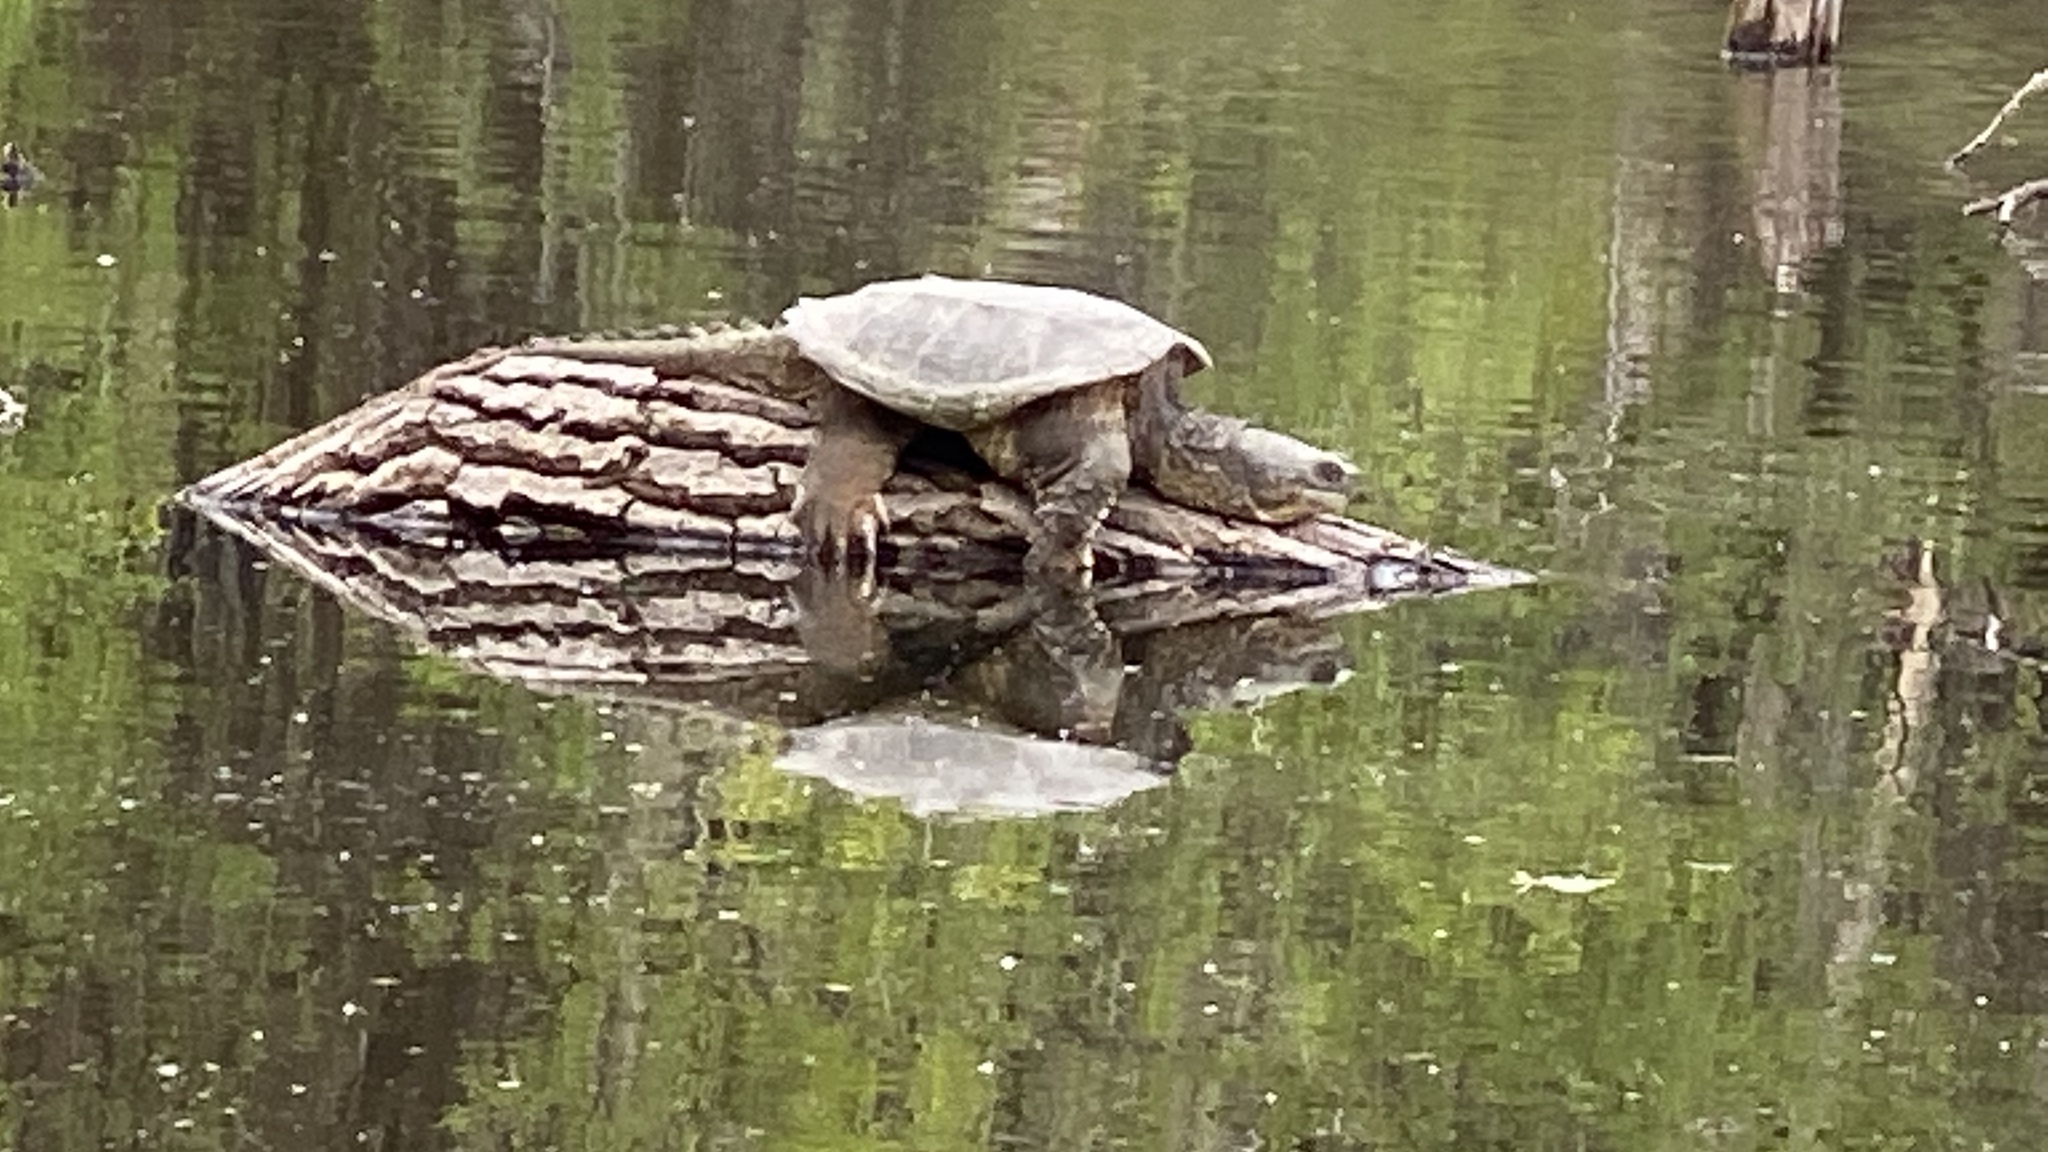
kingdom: Animalia
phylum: Chordata
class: Testudines
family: Chelydridae
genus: Chelydra
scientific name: Chelydra serpentina
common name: Common snapping turtle
